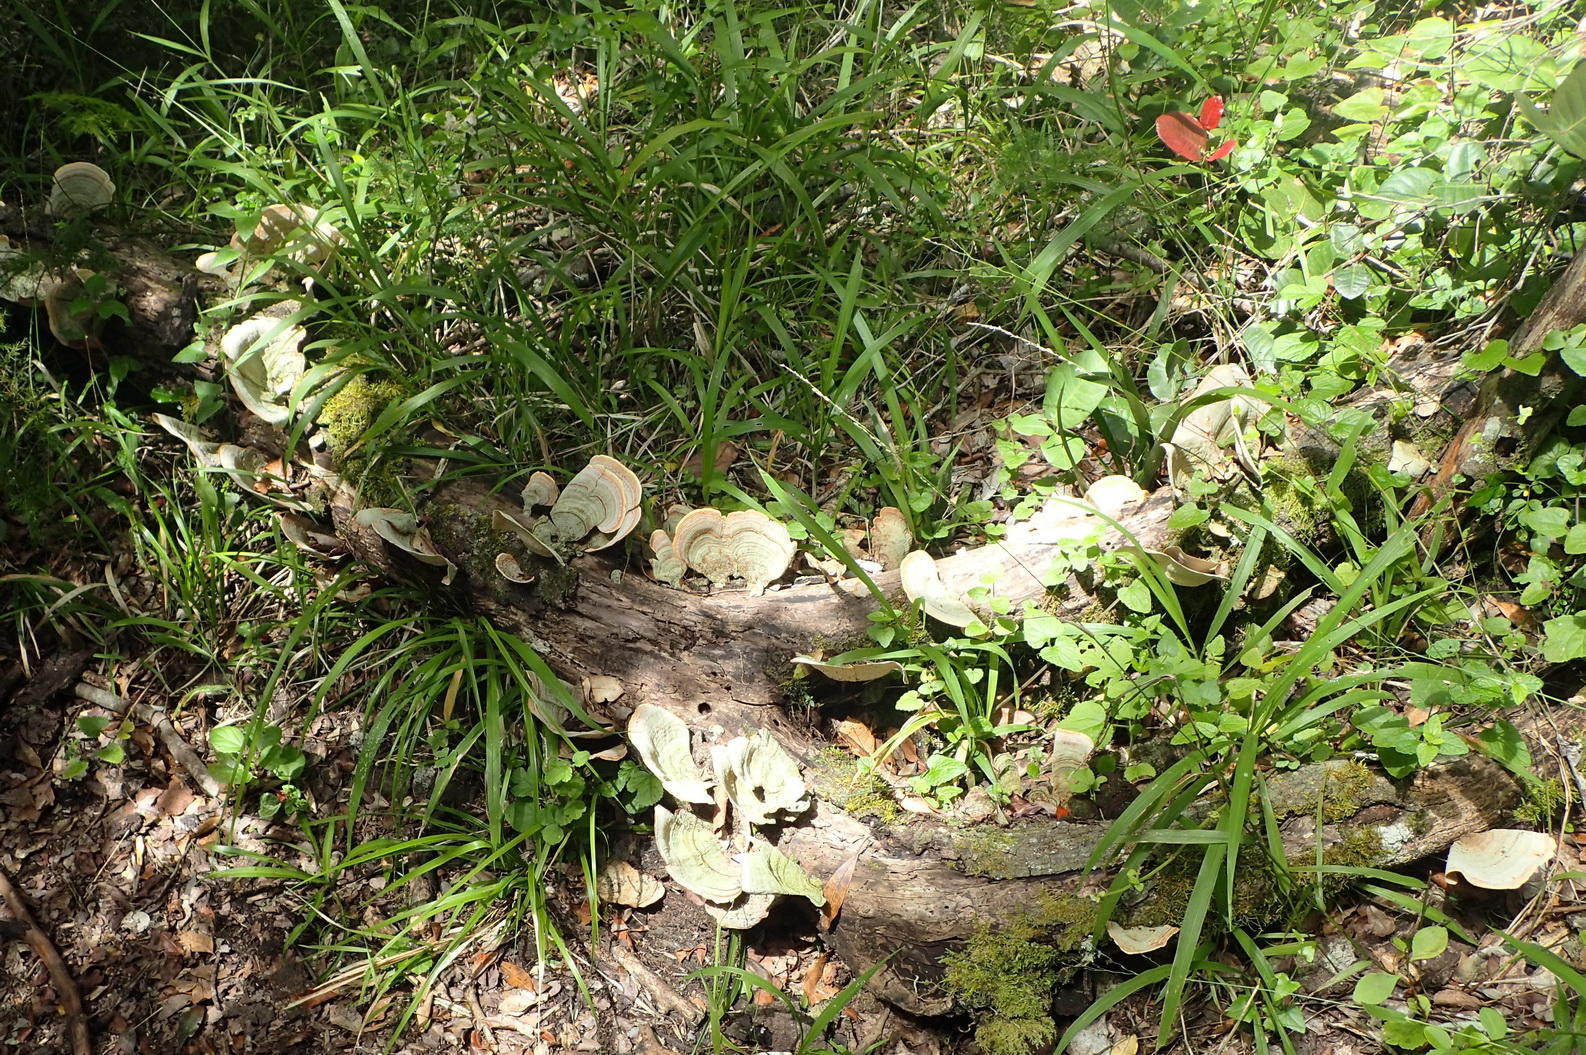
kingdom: Fungi
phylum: Basidiomycota
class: Agaricomycetes
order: Russulales
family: Stereaceae
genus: Stereum
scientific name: Stereum ostrea
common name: False turkeytail
